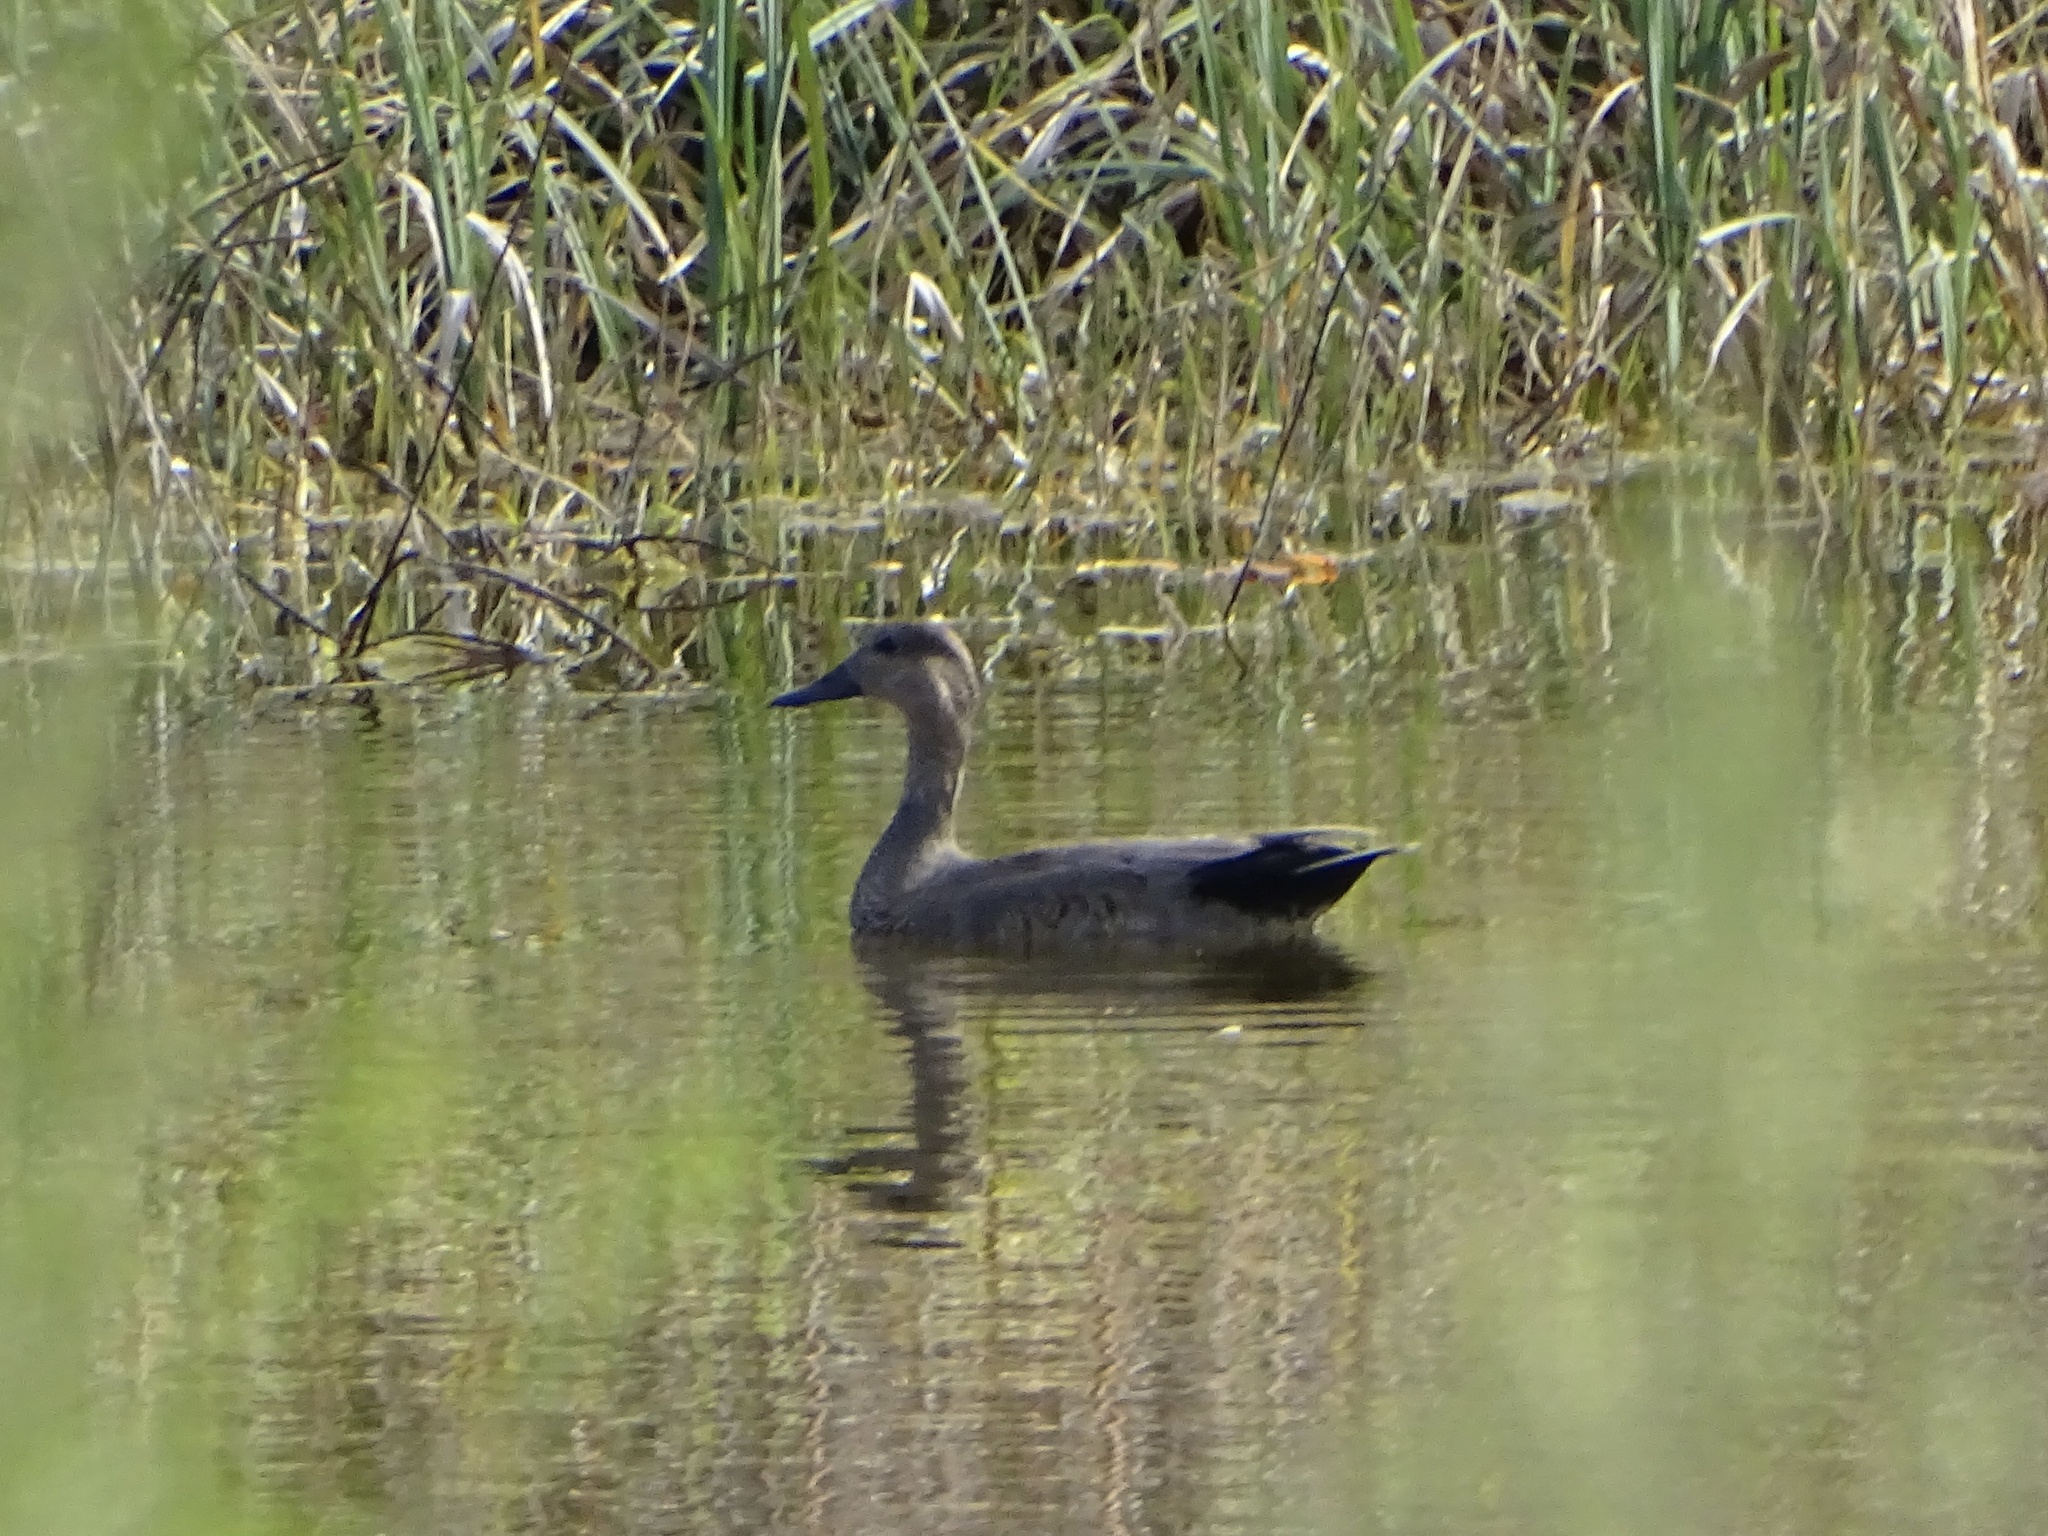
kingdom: Animalia
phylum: Chordata
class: Aves
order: Anseriformes
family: Anatidae
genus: Mareca
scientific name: Mareca strepera
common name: Gadwall
